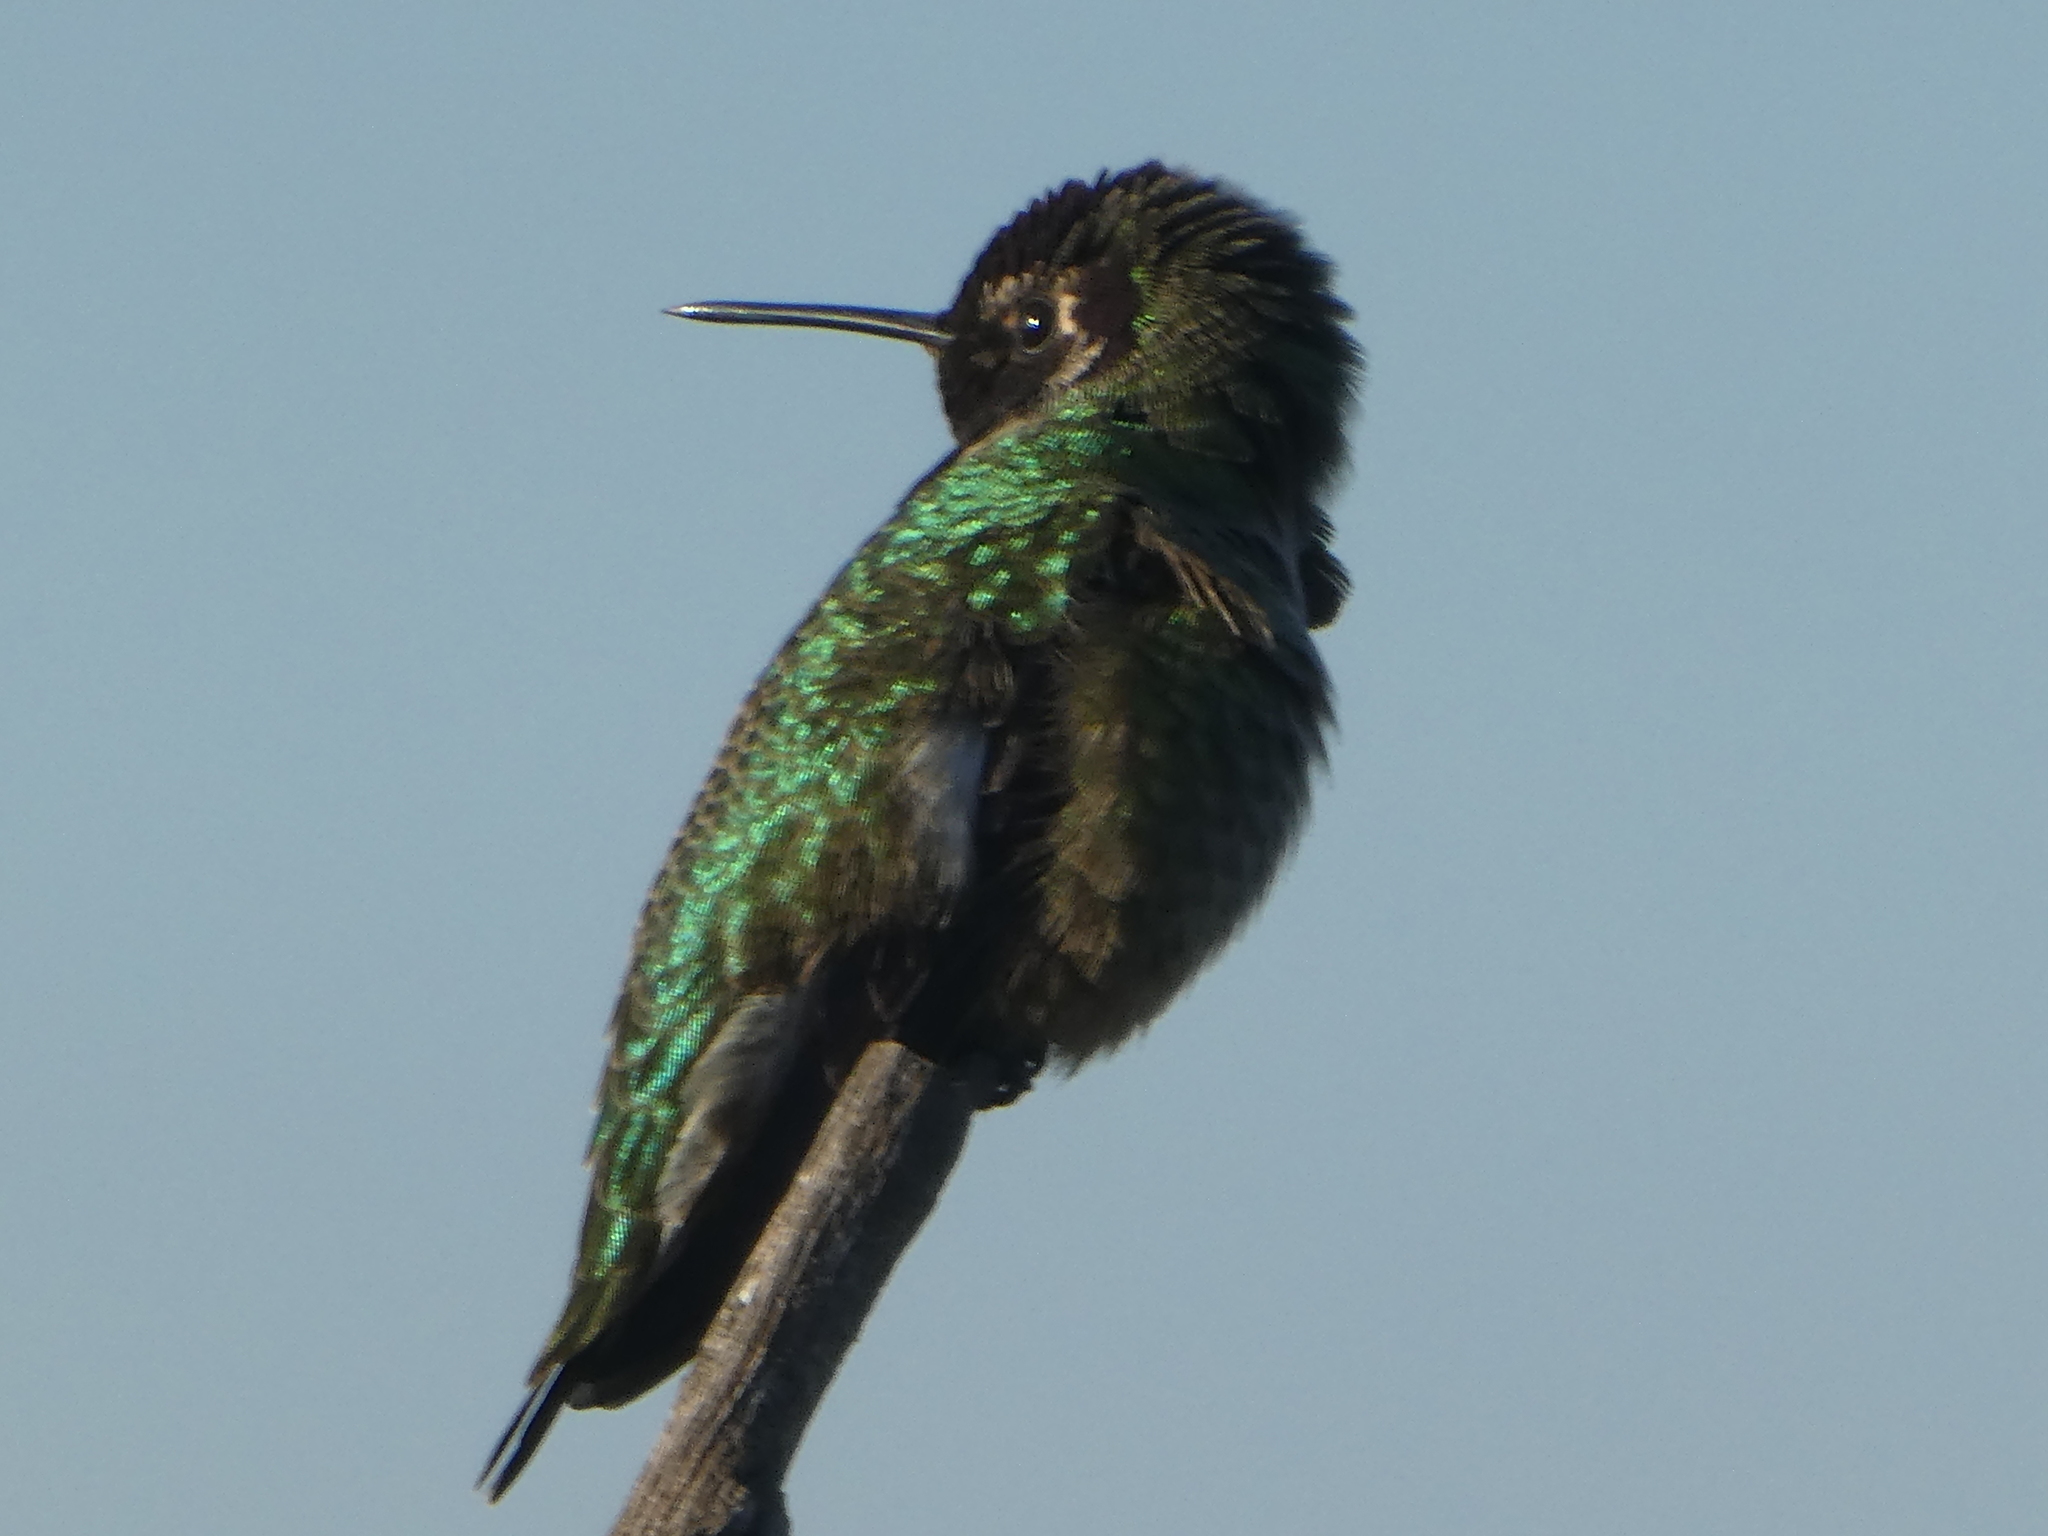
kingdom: Animalia
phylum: Chordata
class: Aves
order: Apodiformes
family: Trochilidae
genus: Calypte
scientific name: Calypte anna
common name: Anna's hummingbird
